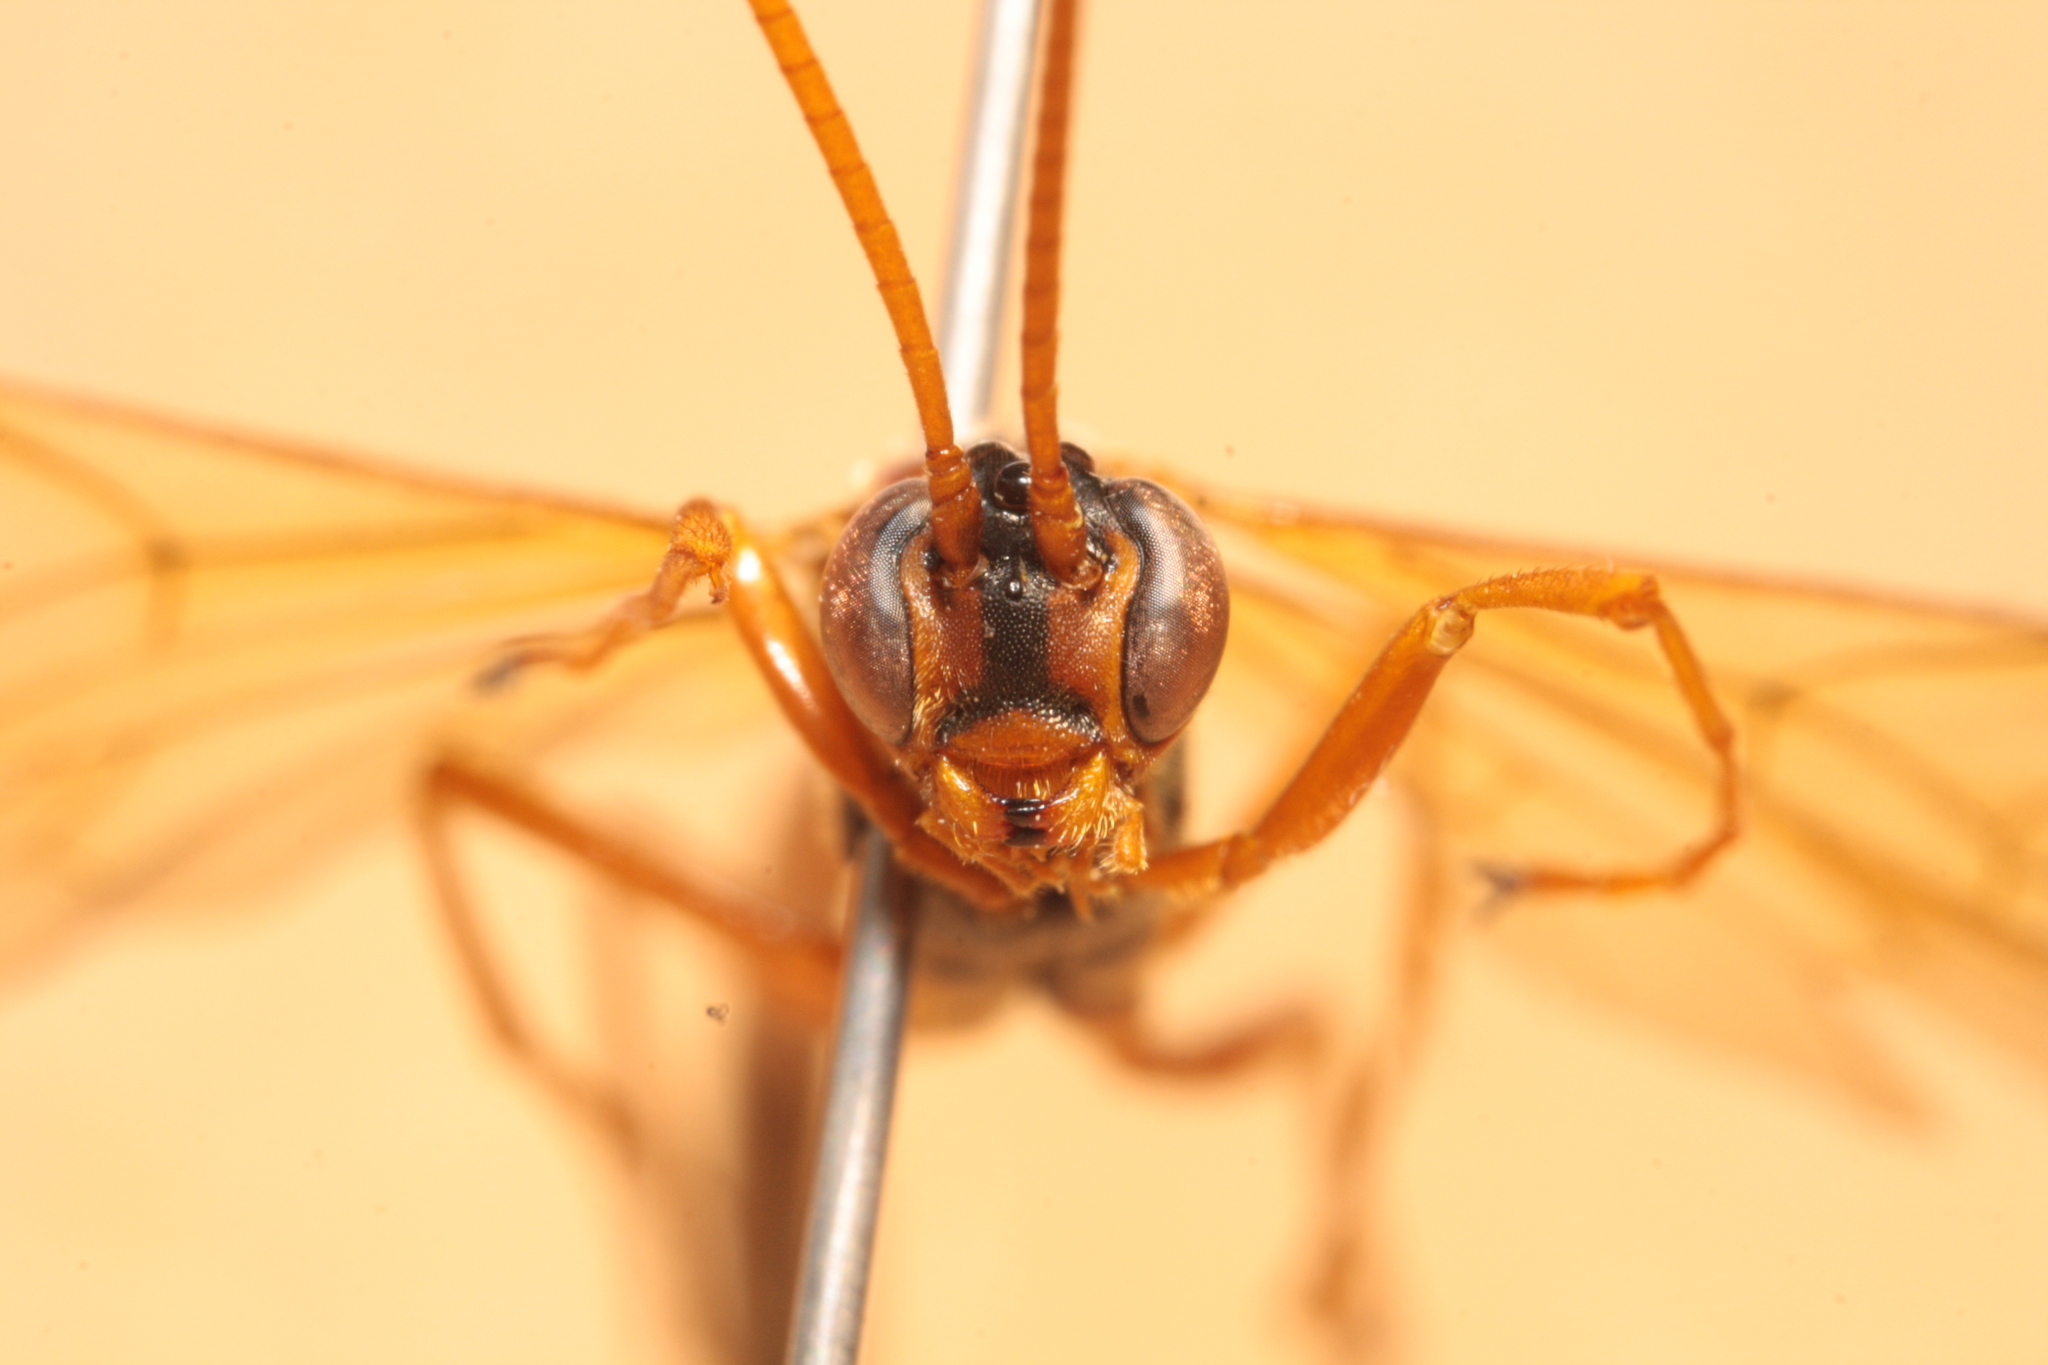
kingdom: Animalia
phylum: Arthropoda
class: Insecta
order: Hymenoptera
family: Ichneumonidae
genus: Ophion
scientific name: Ophion ventricosus
